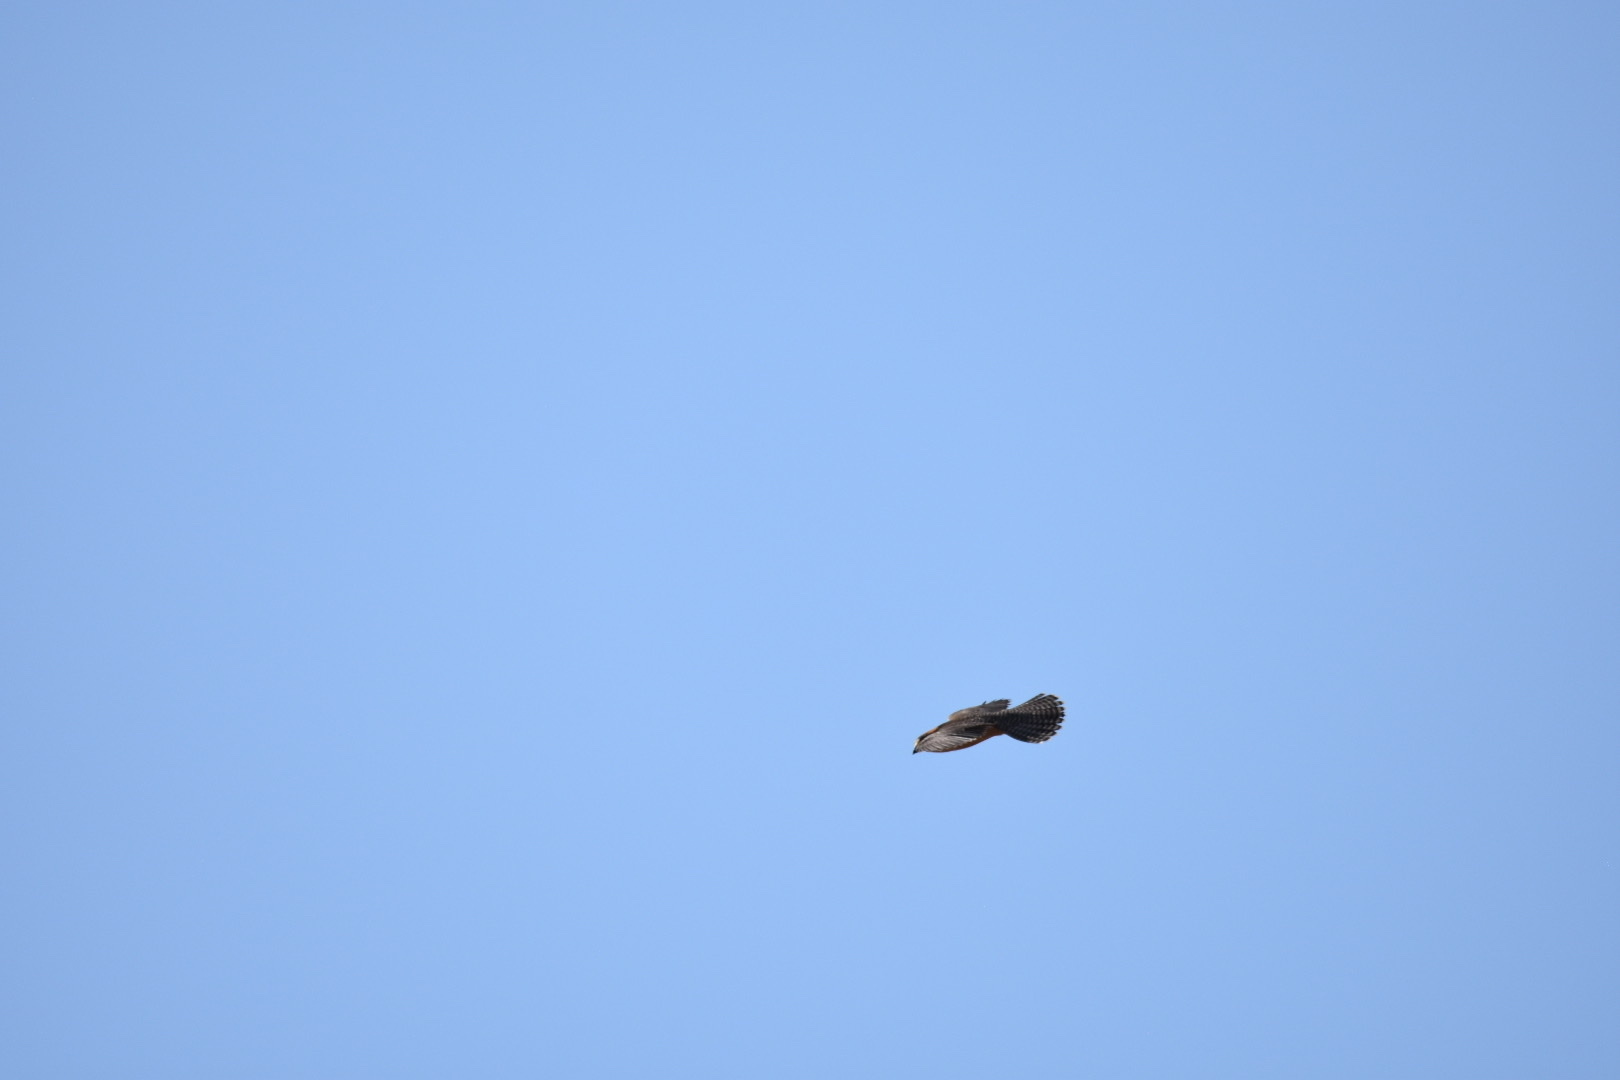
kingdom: Animalia
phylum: Chordata
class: Aves
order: Falconiformes
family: Falconidae
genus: Falco
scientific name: Falco biarmicus
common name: Lanner falcon
